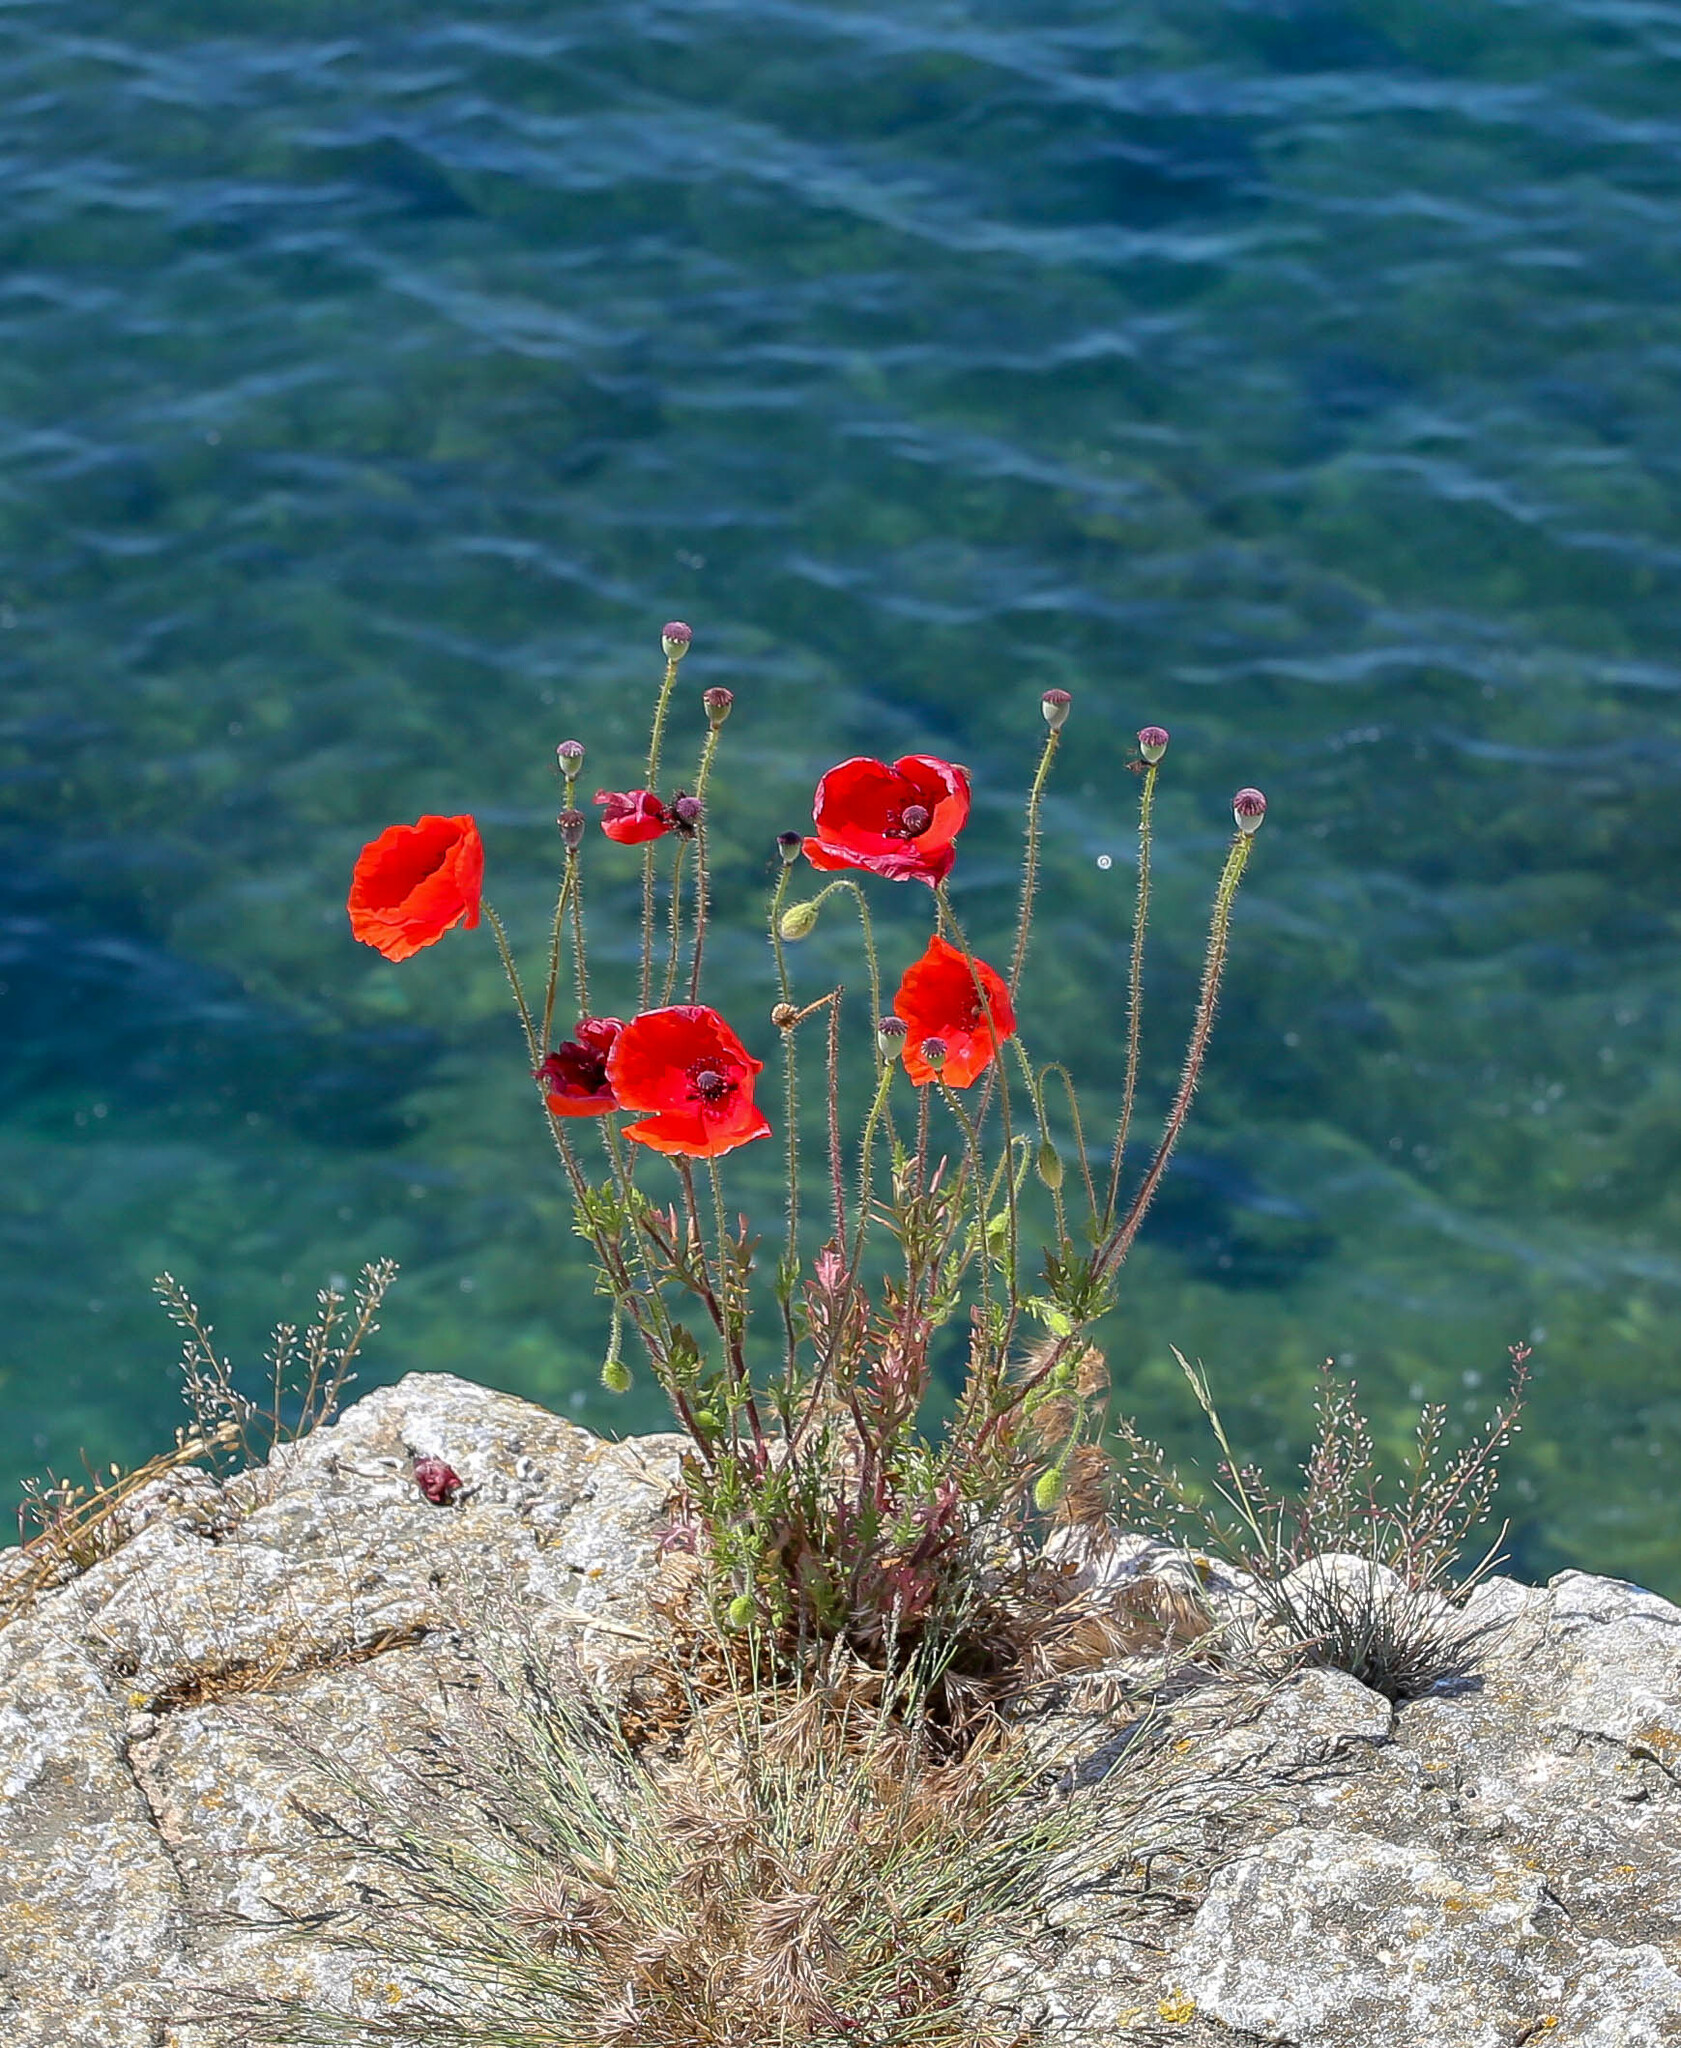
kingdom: Plantae
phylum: Tracheophyta
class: Magnoliopsida
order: Ranunculales
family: Papaveraceae
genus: Papaver
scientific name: Papaver rhoeas
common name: Corn poppy
